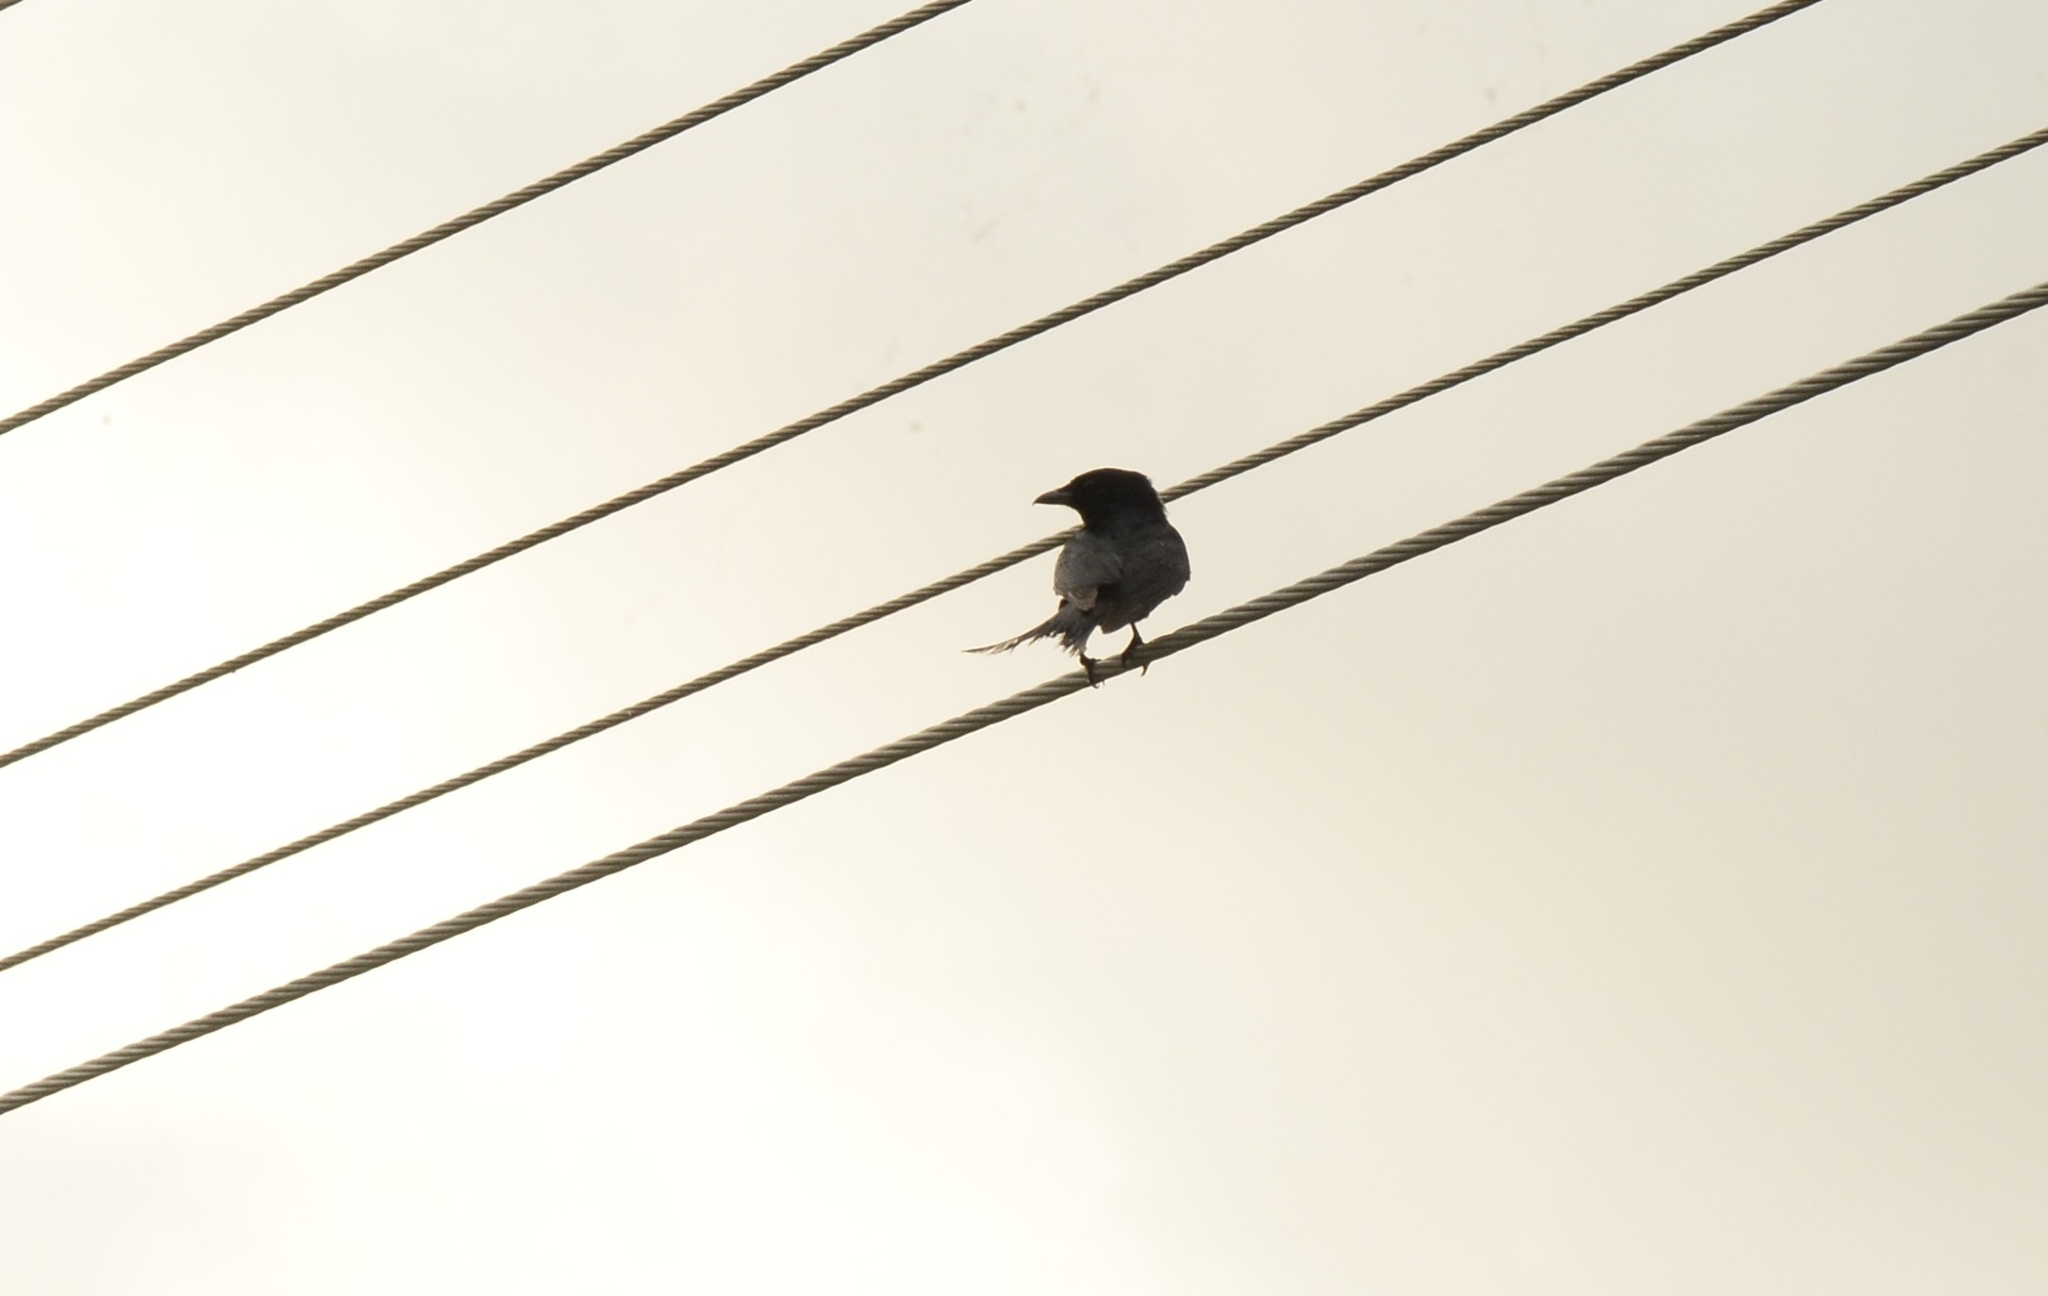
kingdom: Animalia
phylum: Chordata
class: Aves
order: Passeriformes
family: Dicruridae
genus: Dicrurus
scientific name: Dicrurus macrocercus
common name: Black drongo
